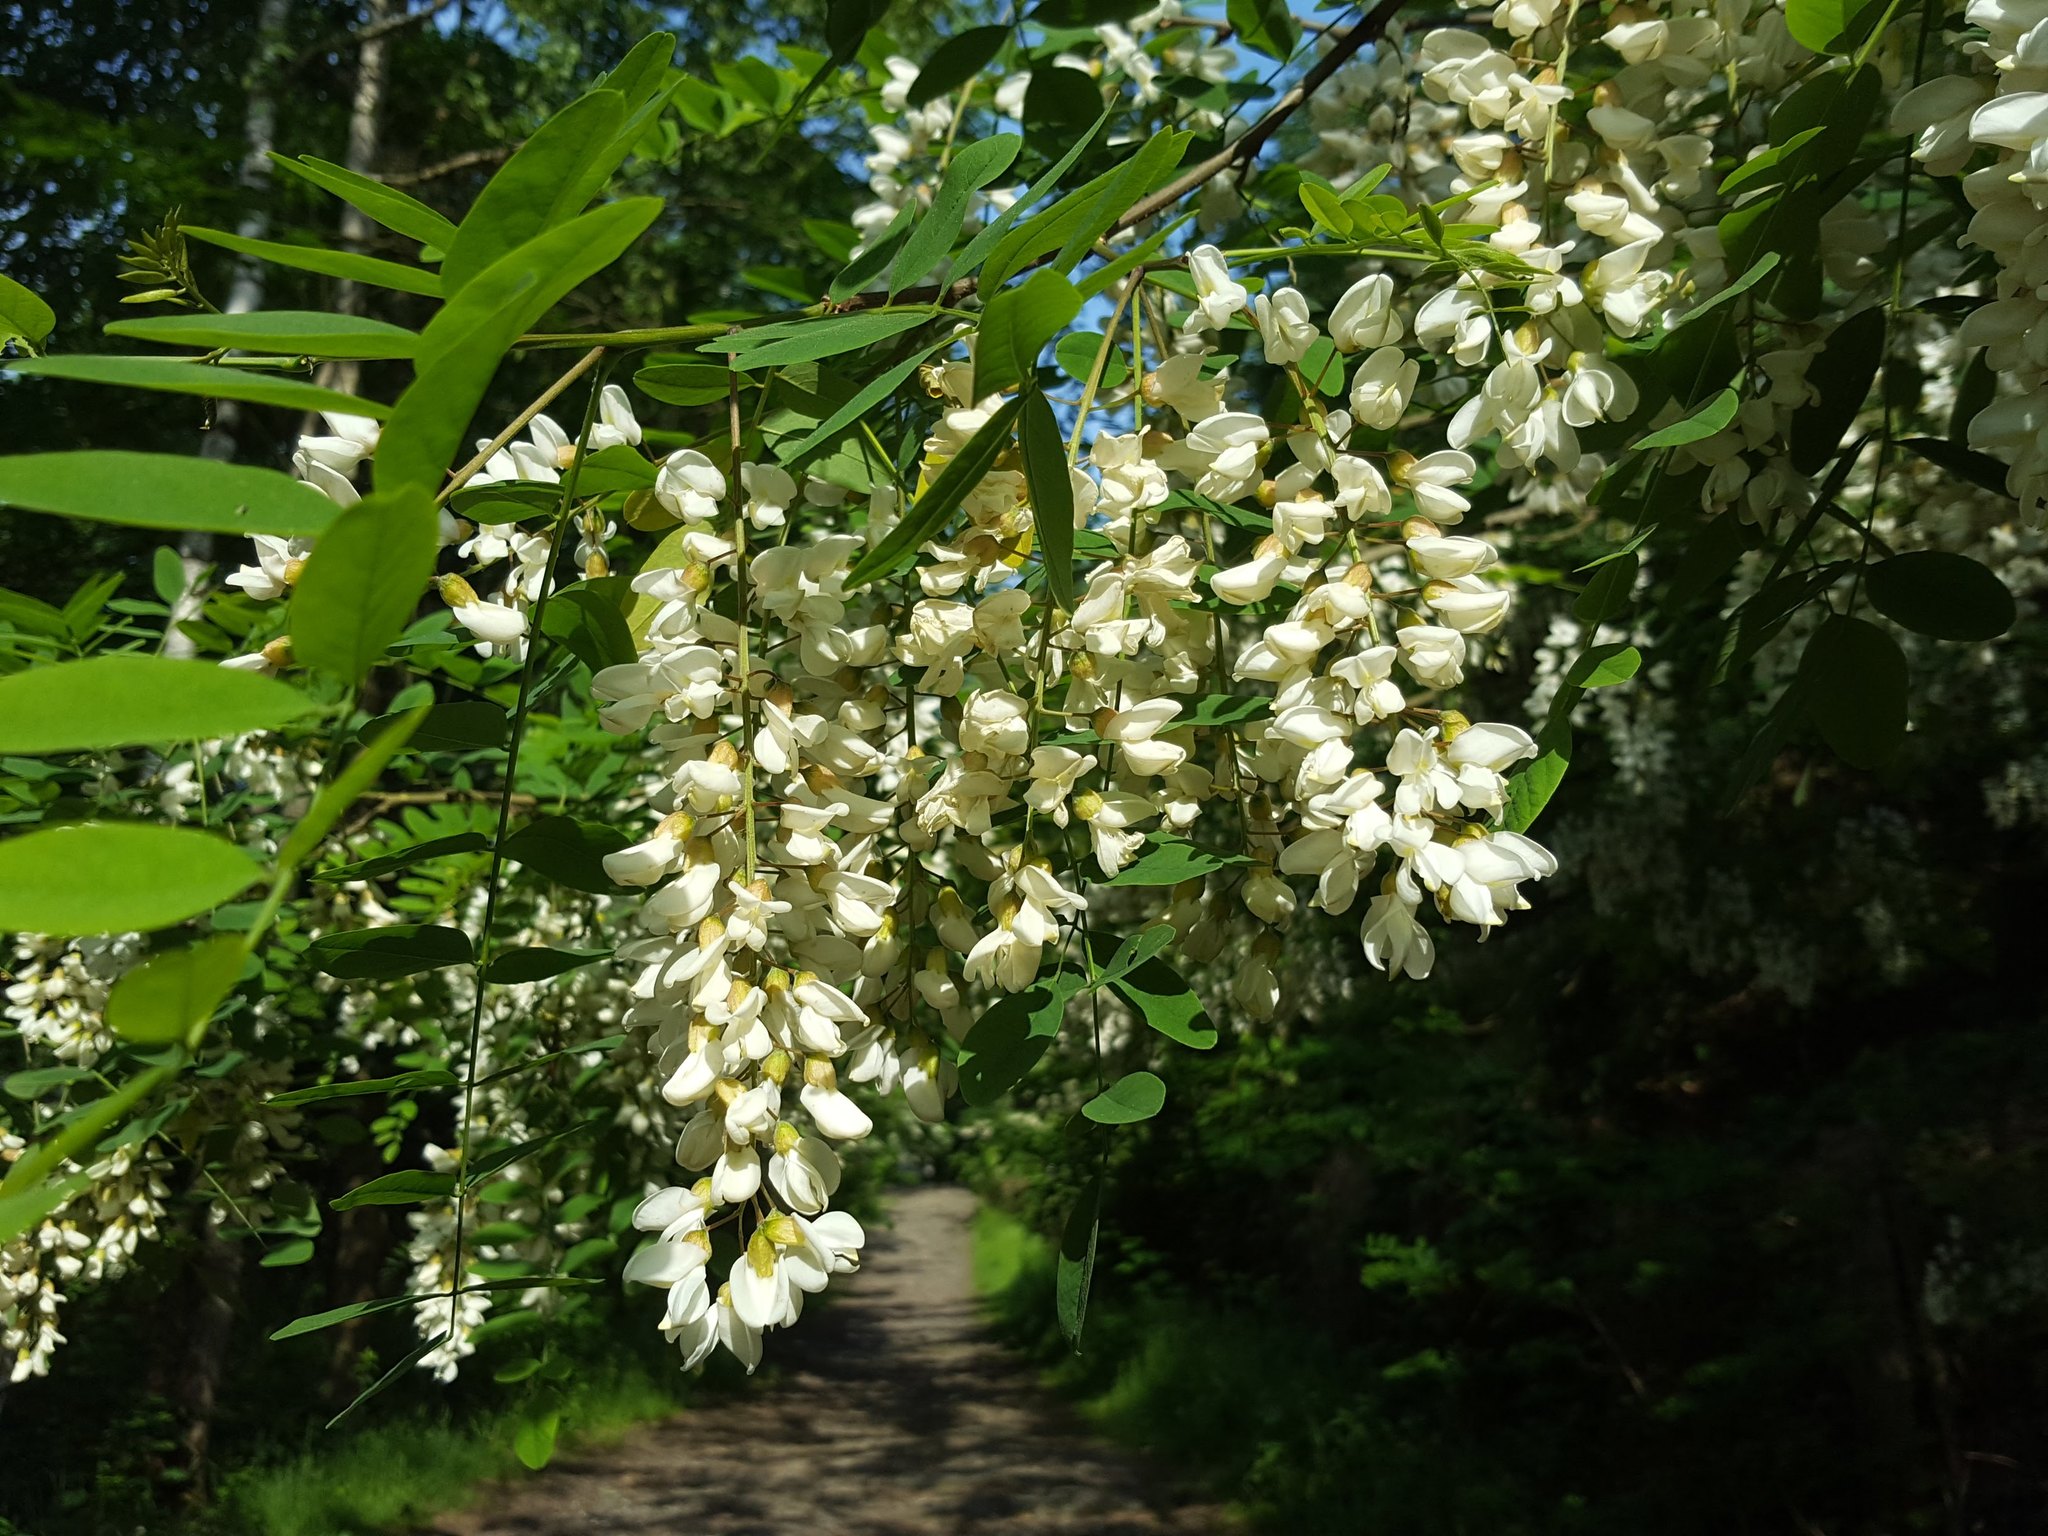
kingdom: Plantae
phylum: Tracheophyta
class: Magnoliopsida
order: Fabales
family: Fabaceae
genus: Robinia
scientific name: Robinia pseudoacacia
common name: Black locust
